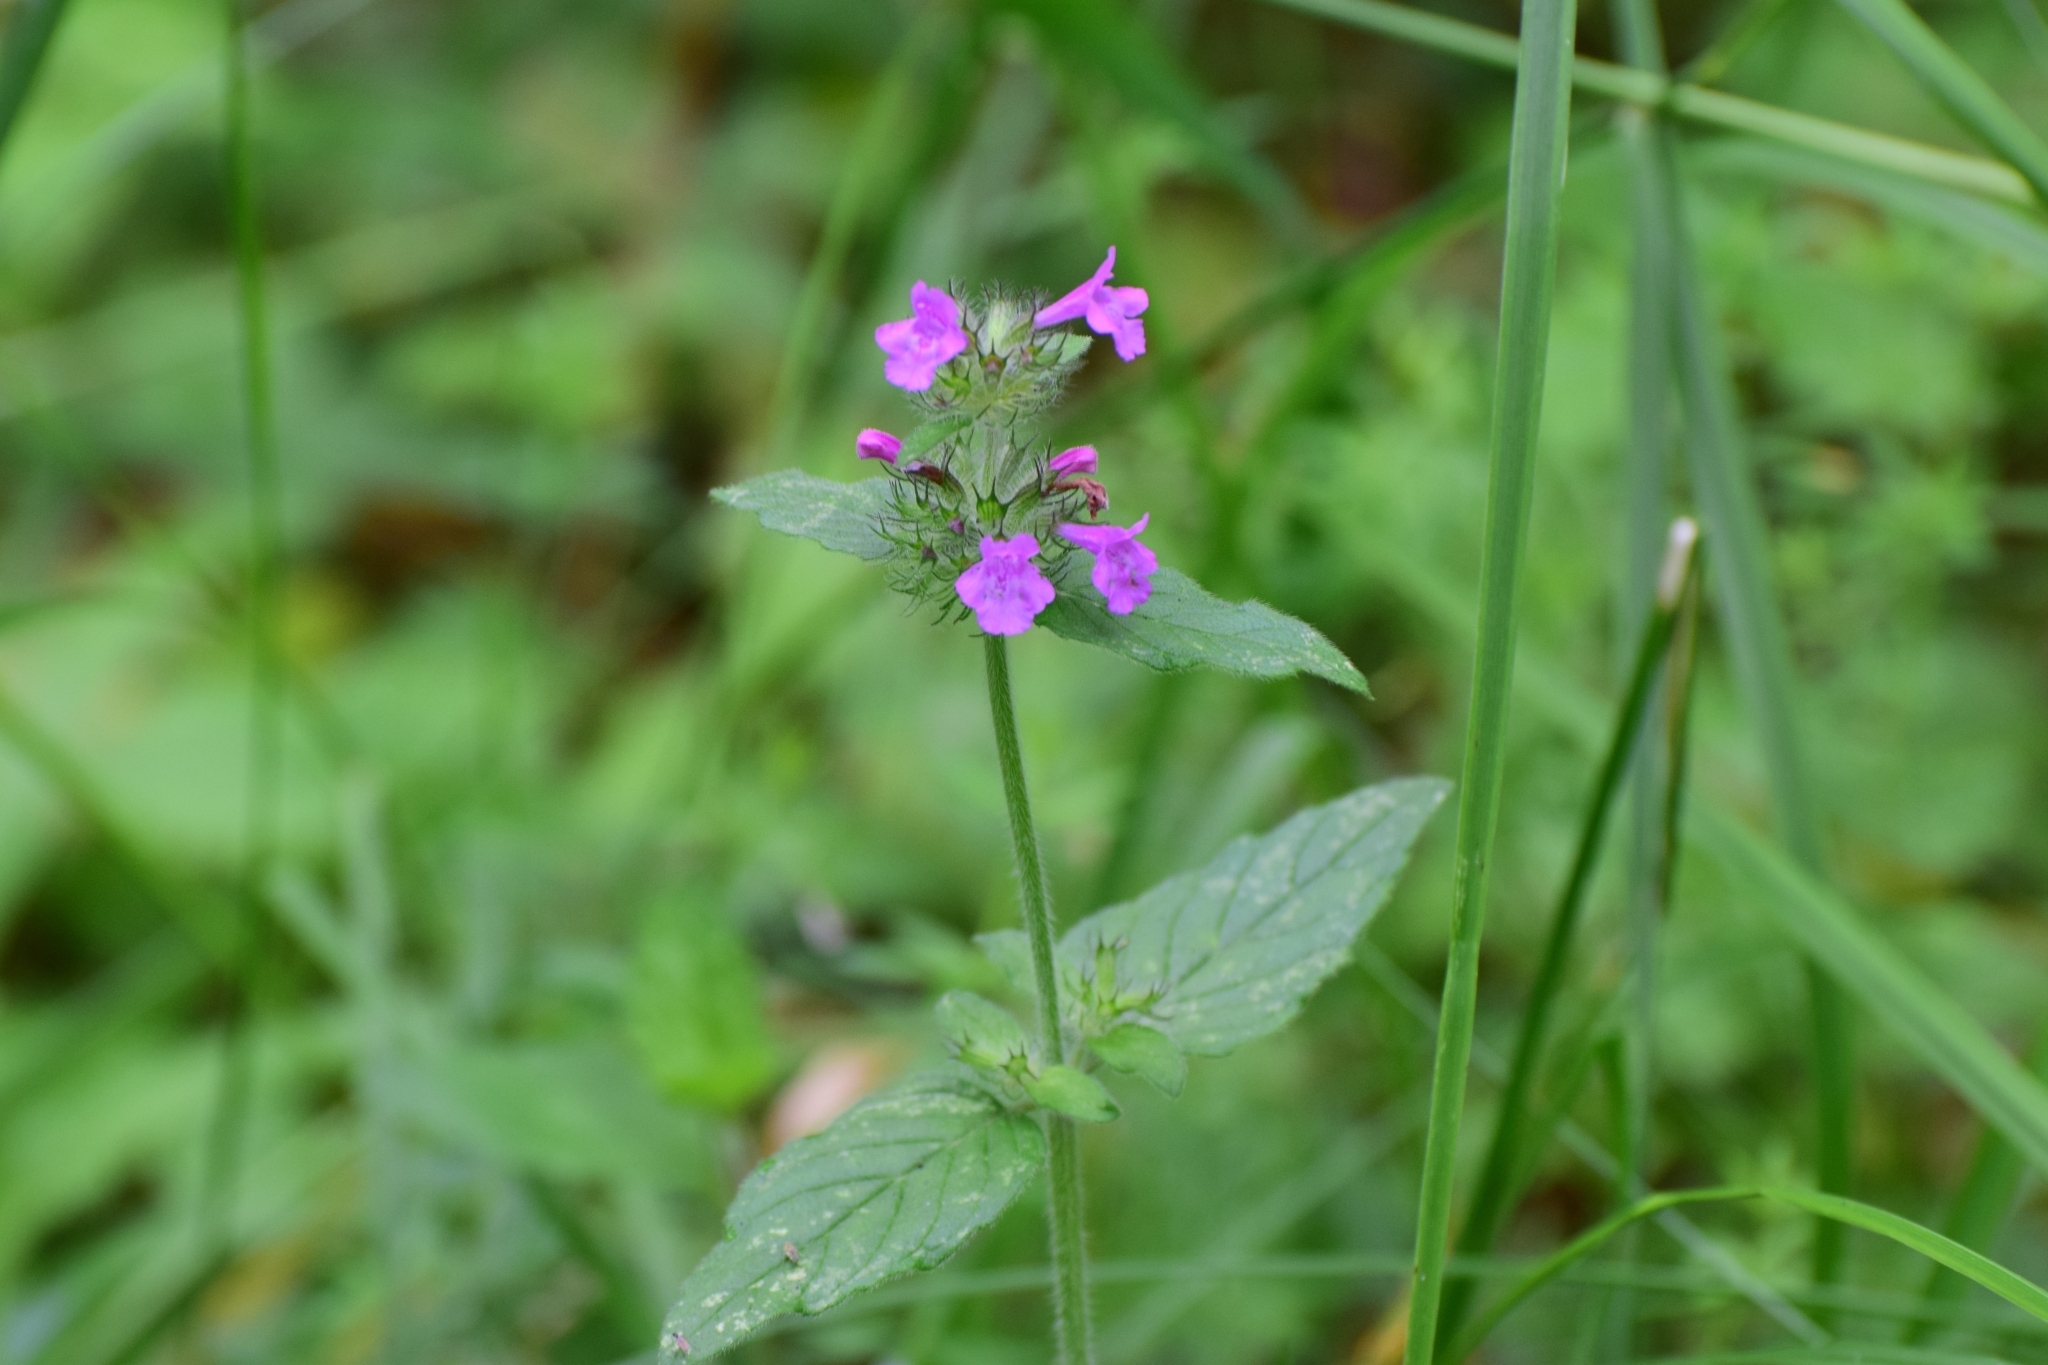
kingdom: Plantae
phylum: Tracheophyta
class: Magnoliopsida
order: Lamiales
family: Lamiaceae
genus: Clinopodium
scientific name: Clinopodium vulgare
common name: Wild basil
